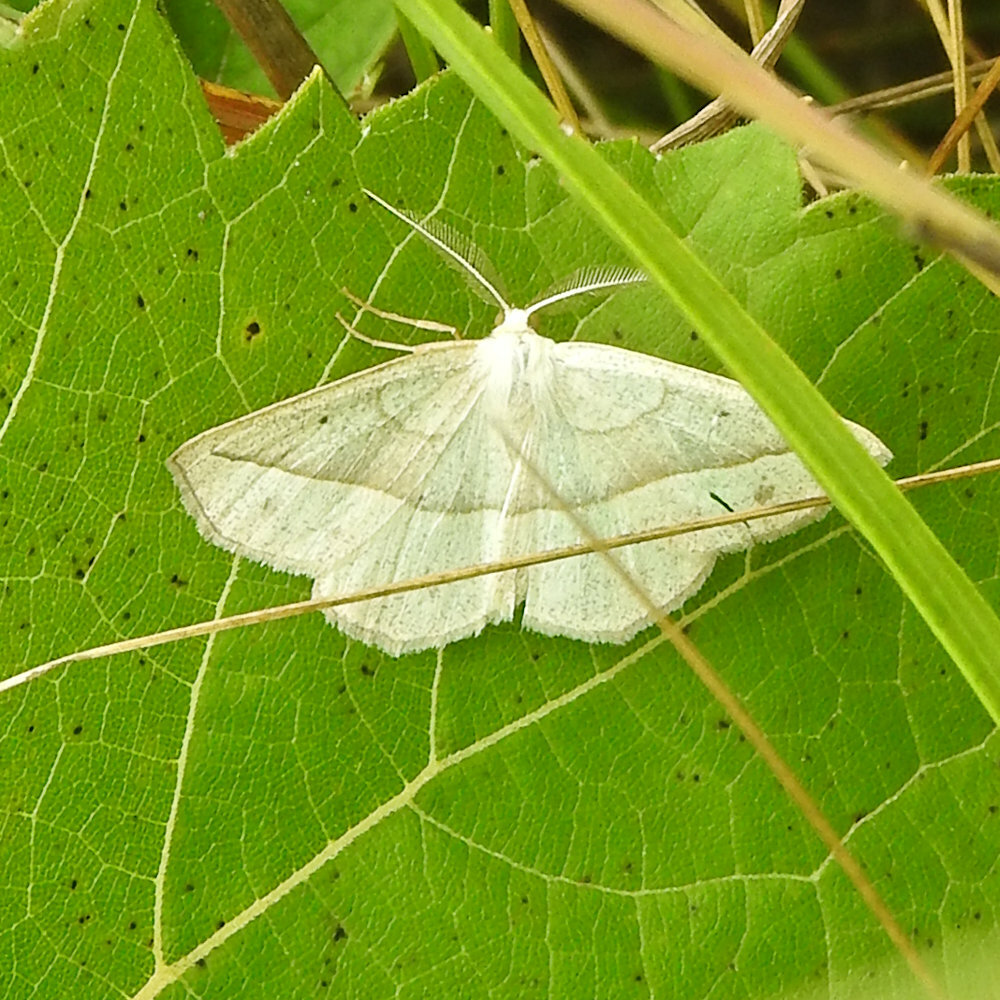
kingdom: Animalia
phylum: Arthropoda
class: Insecta
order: Lepidoptera
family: Geometridae
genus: Eusarca
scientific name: Eusarca confusaria
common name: Confused eusarca
